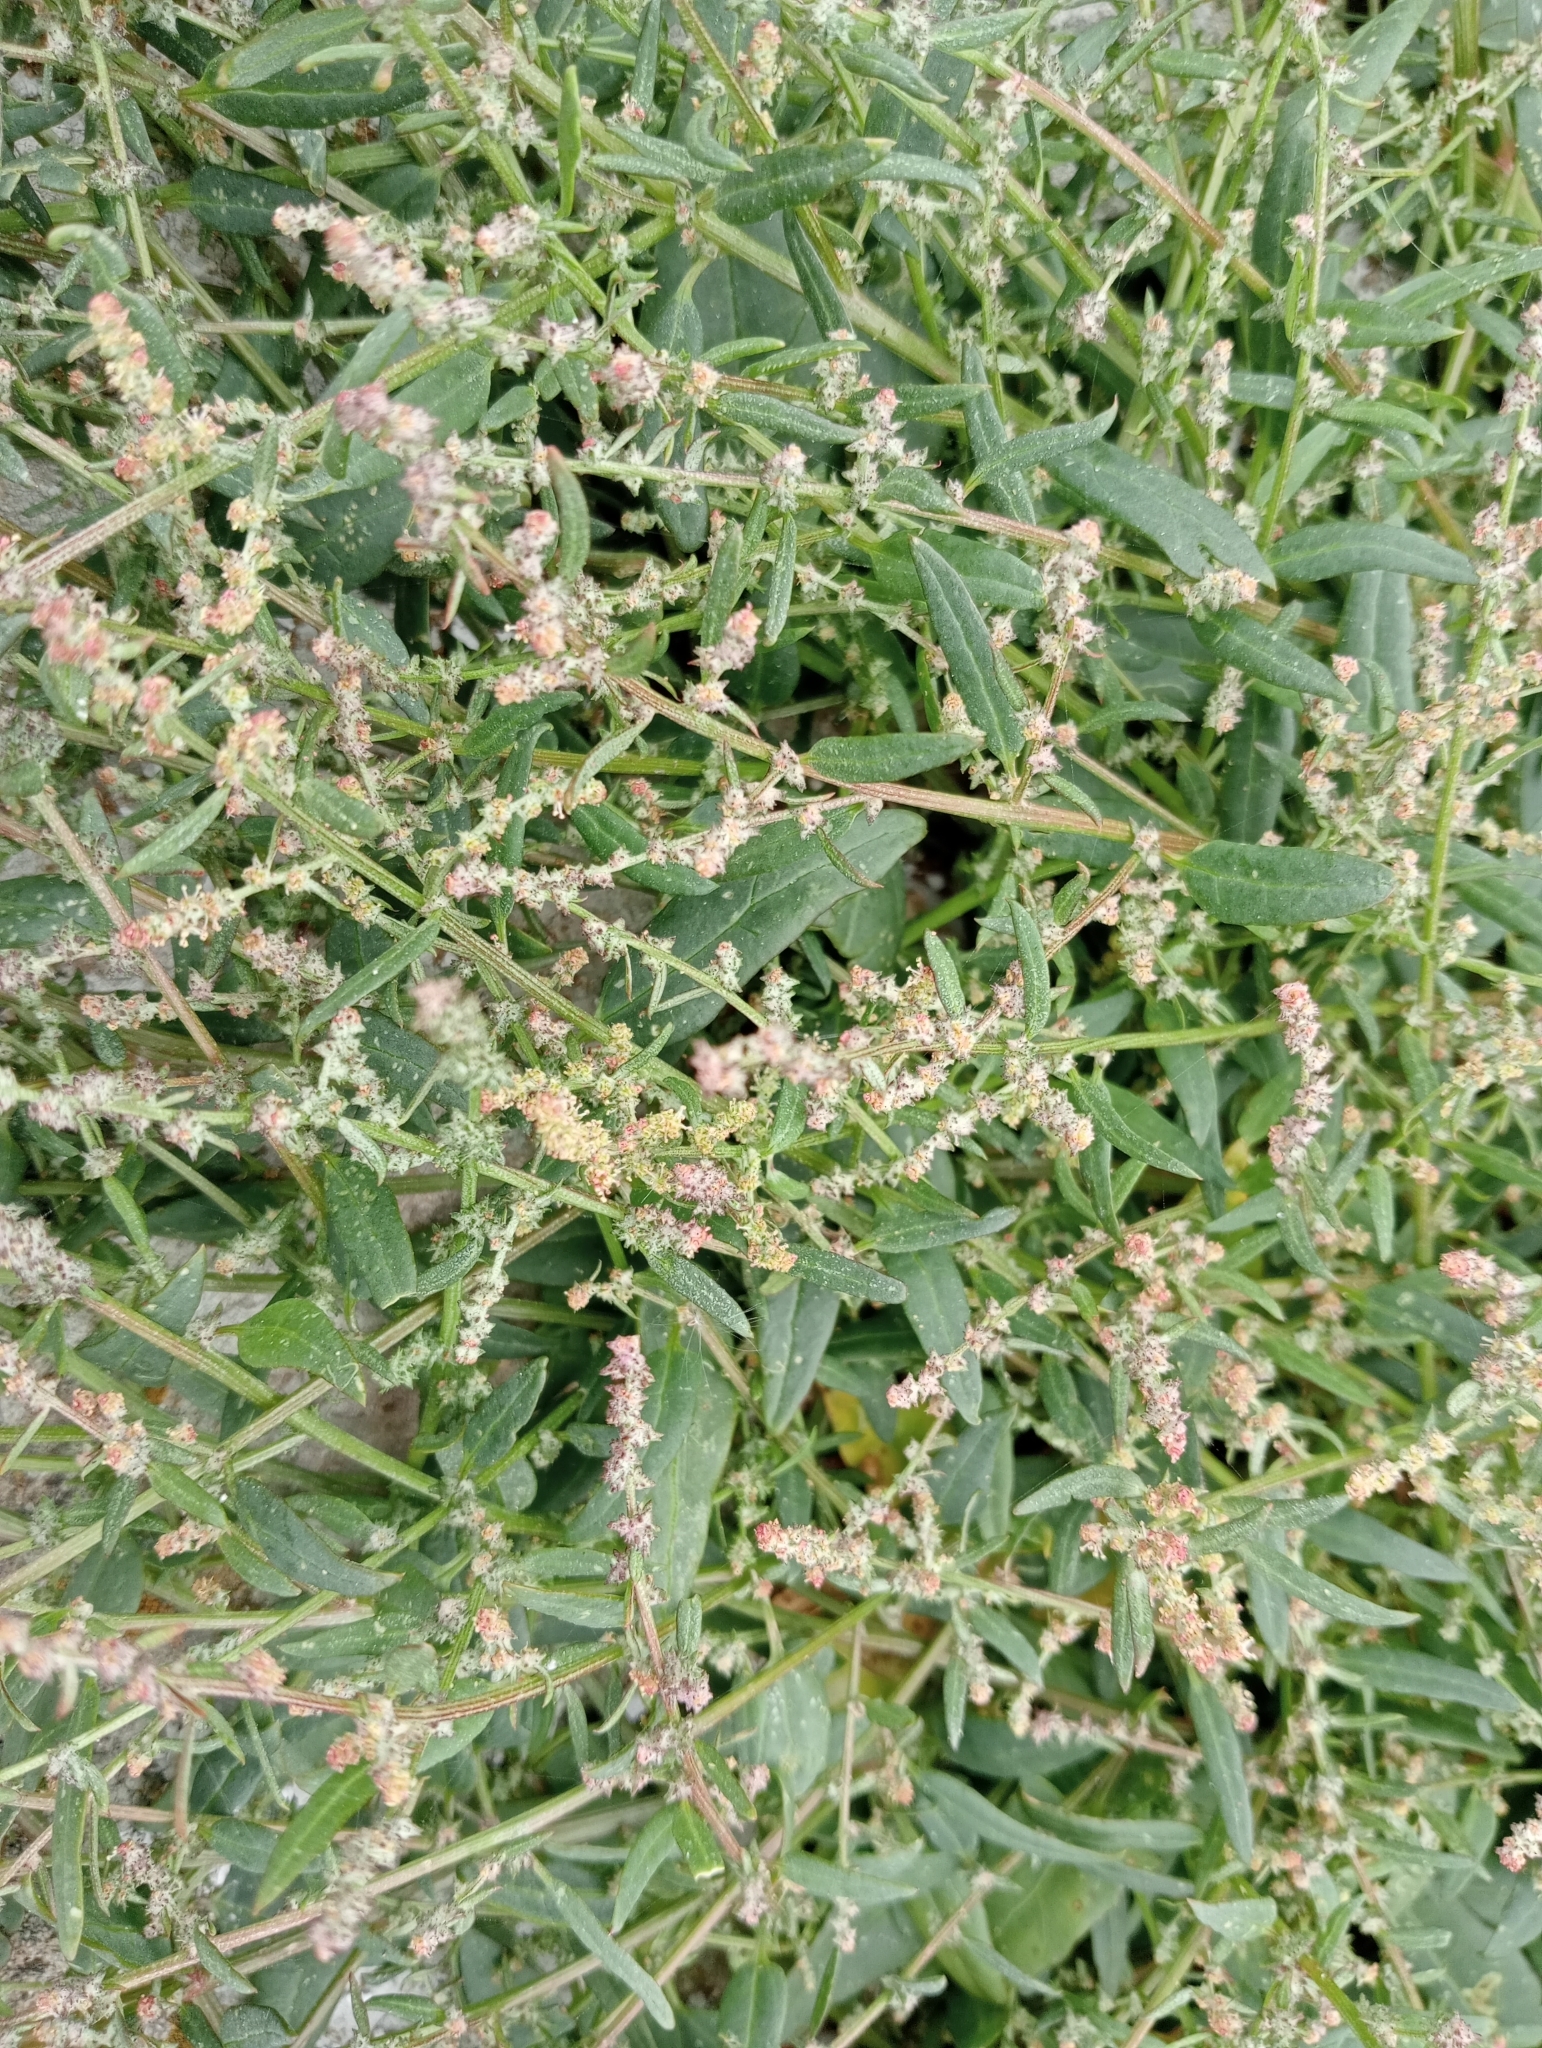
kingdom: Plantae
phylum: Tracheophyta
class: Magnoliopsida
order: Caryophyllales
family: Amaranthaceae
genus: Atriplex
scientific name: Atriplex prostrata
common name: Spear-leaved orache
